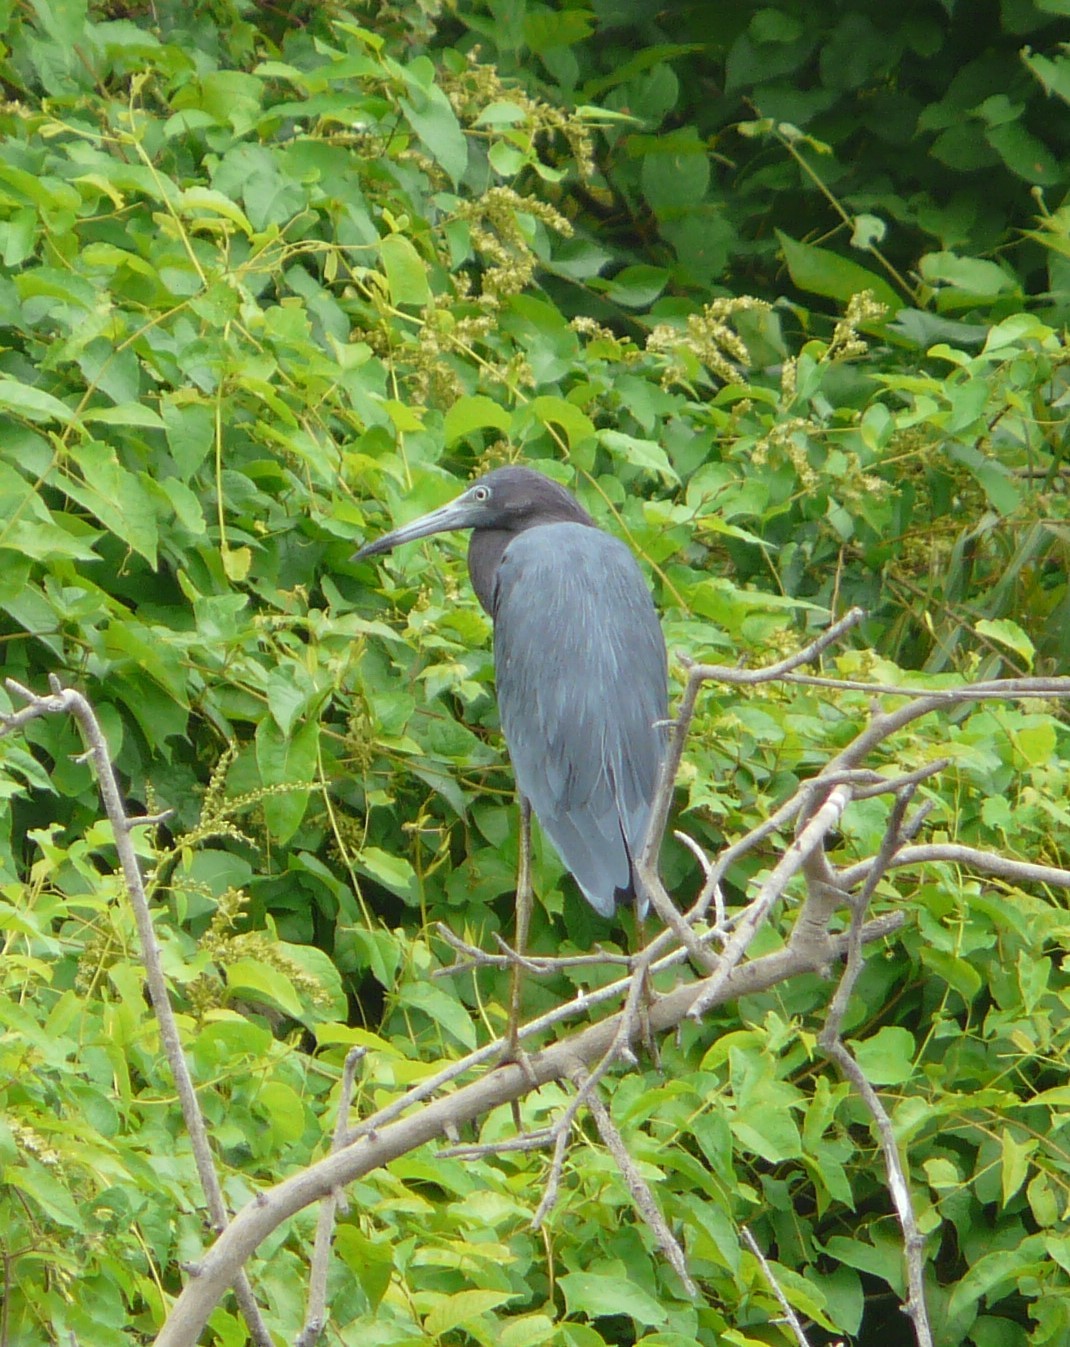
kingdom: Animalia
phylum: Chordata
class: Aves
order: Pelecaniformes
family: Ardeidae
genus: Egretta
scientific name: Egretta caerulea
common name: Little blue heron
